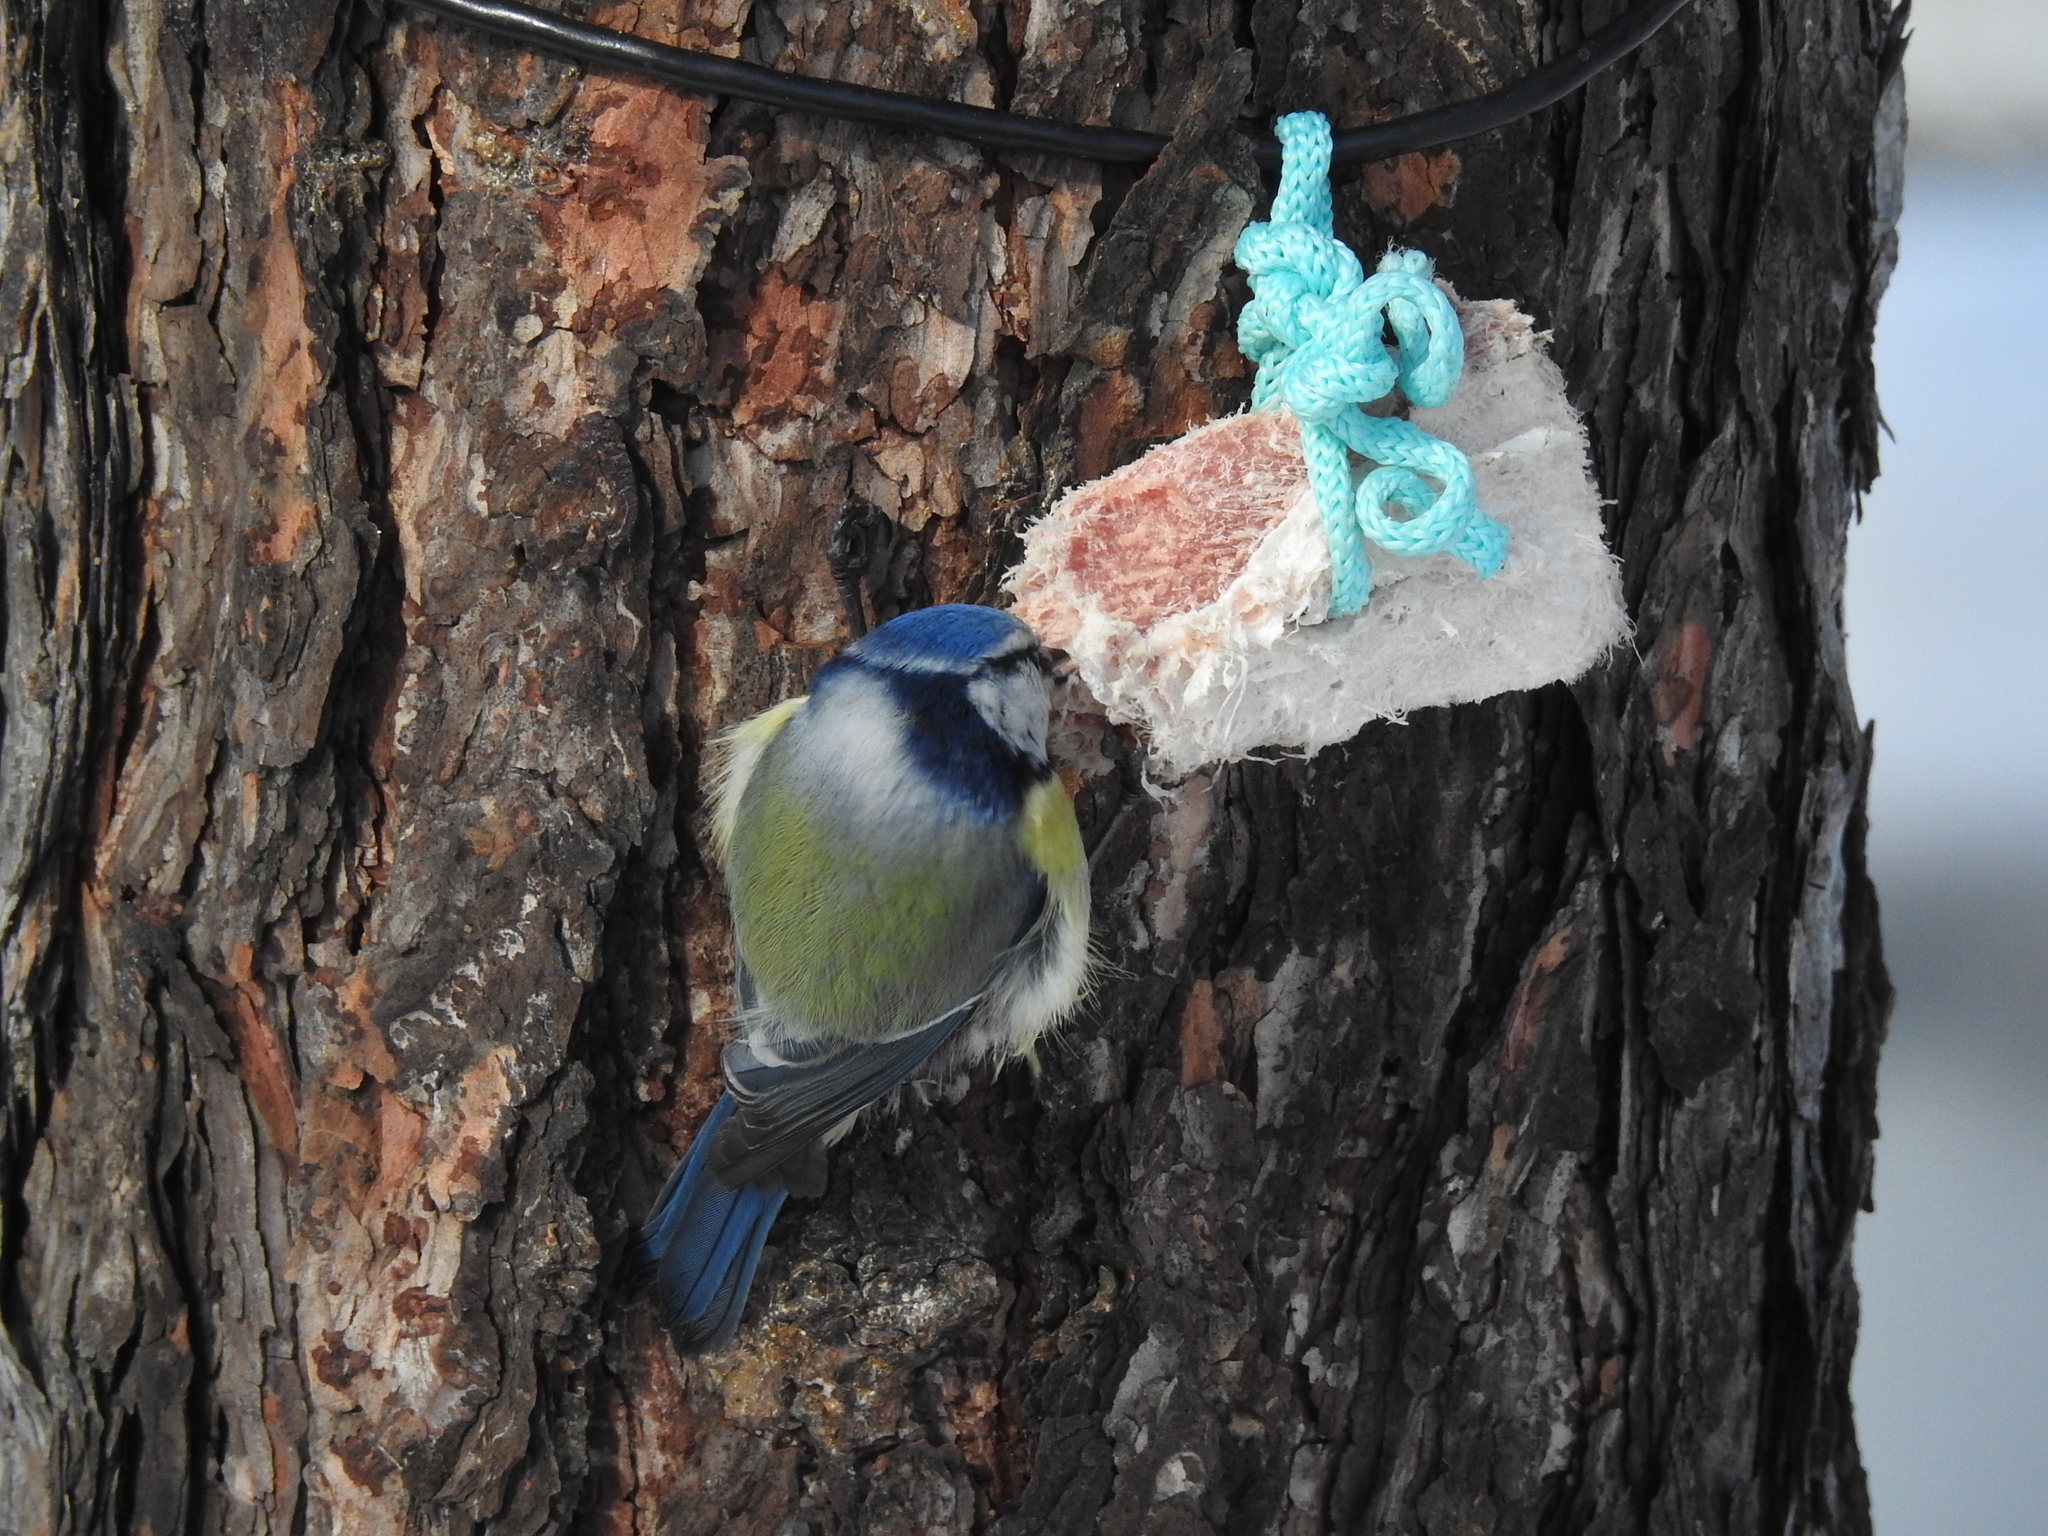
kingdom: Animalia
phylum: Chordata
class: Aves
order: Passeriformes
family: Paridae
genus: Cyanistes
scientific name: Cyanistes caeruleus
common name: Eurasian blue tit
